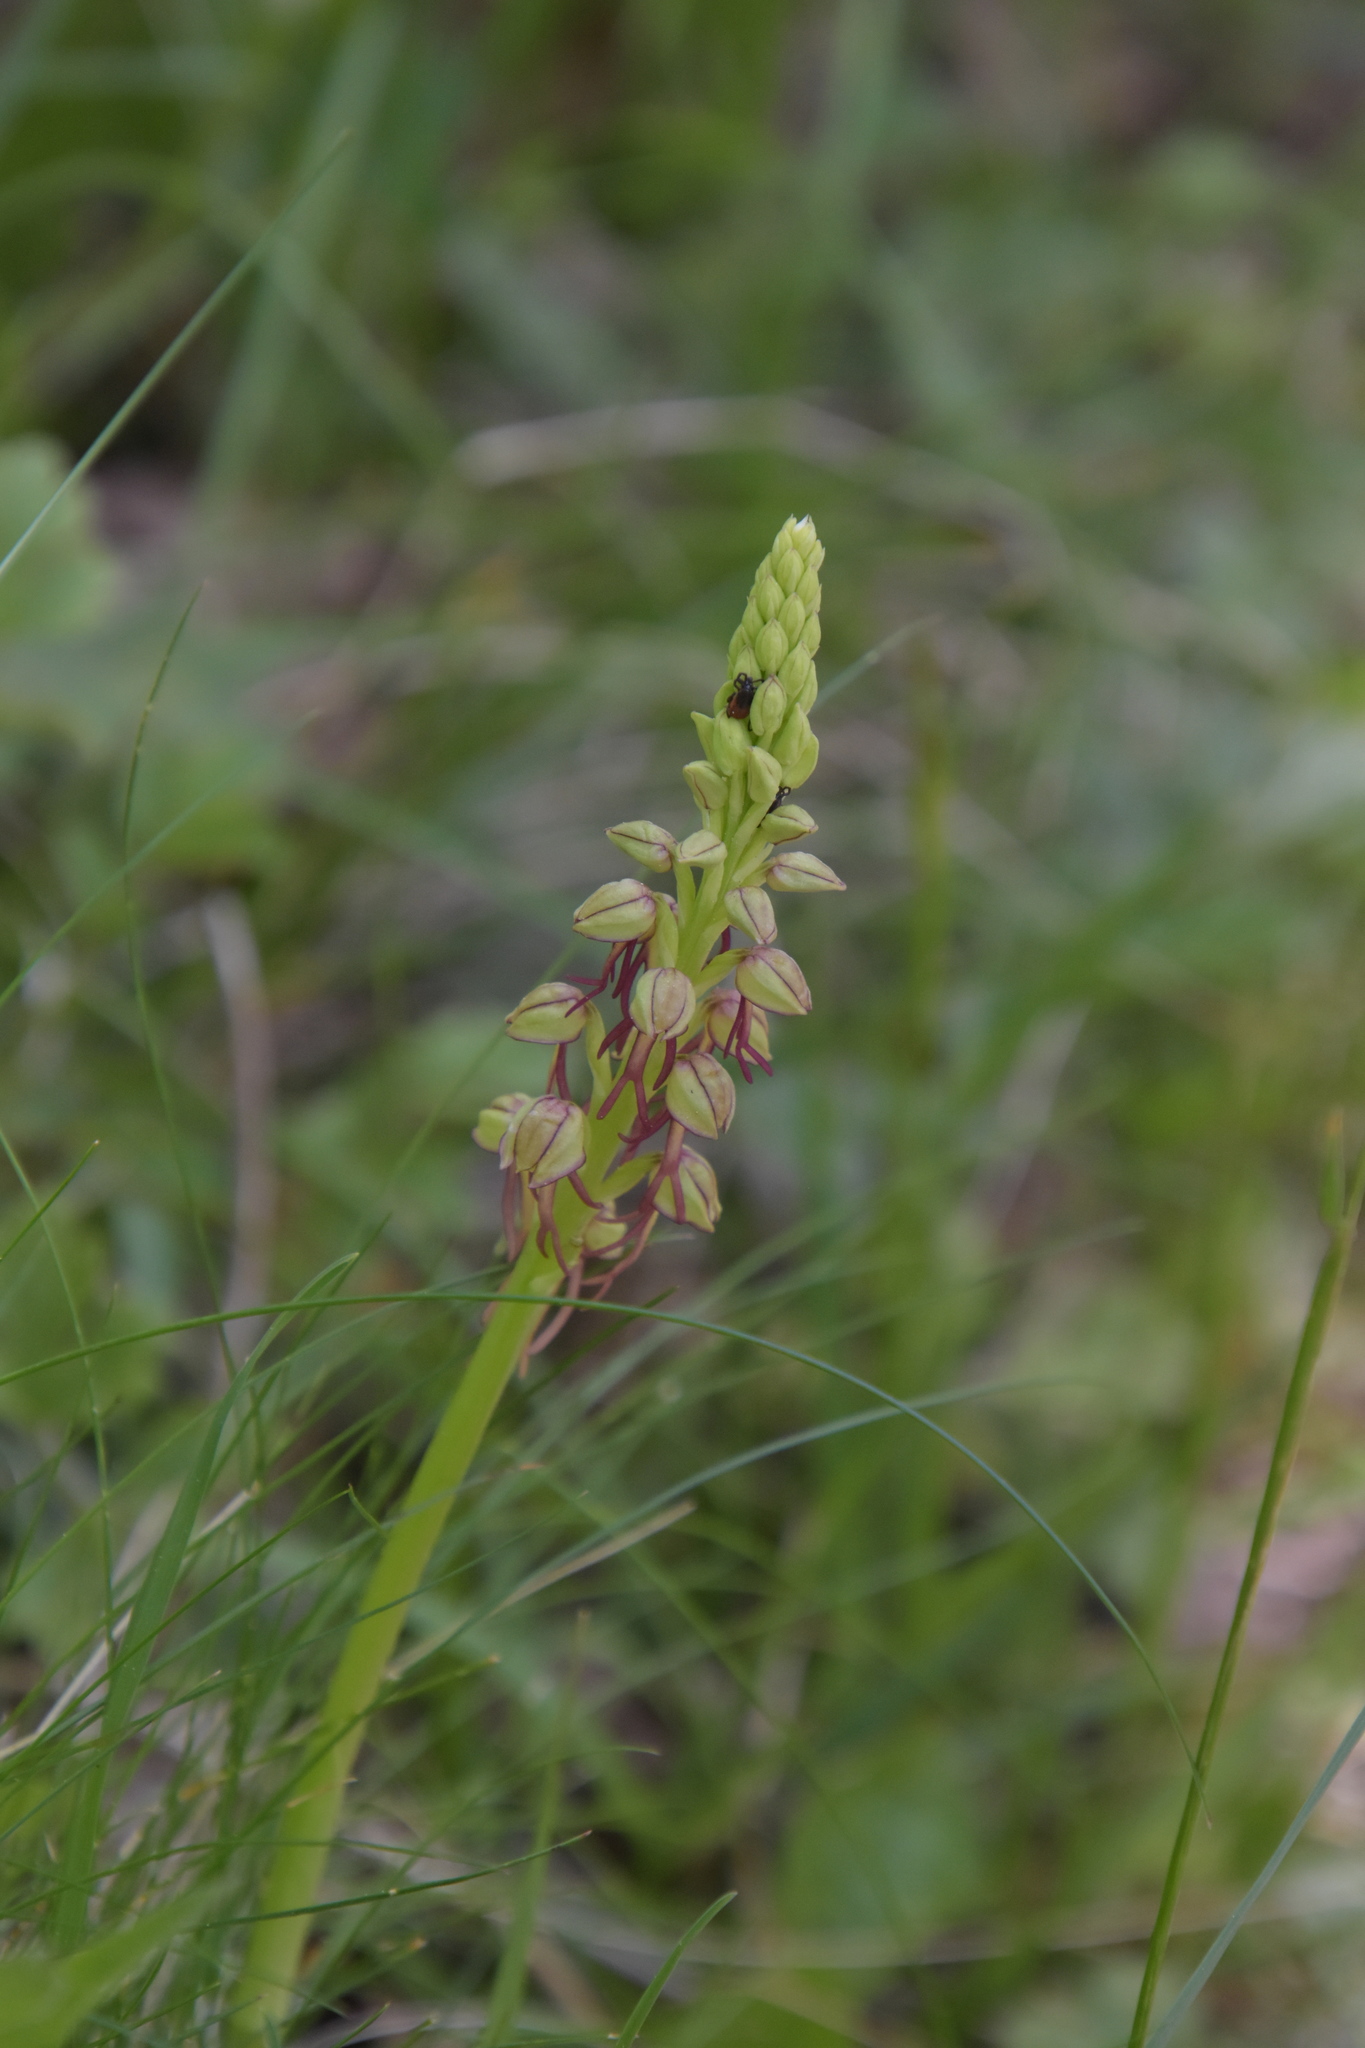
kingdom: Plantae
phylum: Tracheophyta
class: Liliopsida
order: Asparagales
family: Orchidaceae
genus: Orchis
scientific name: Orchis anthropophora
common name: Man orchid
